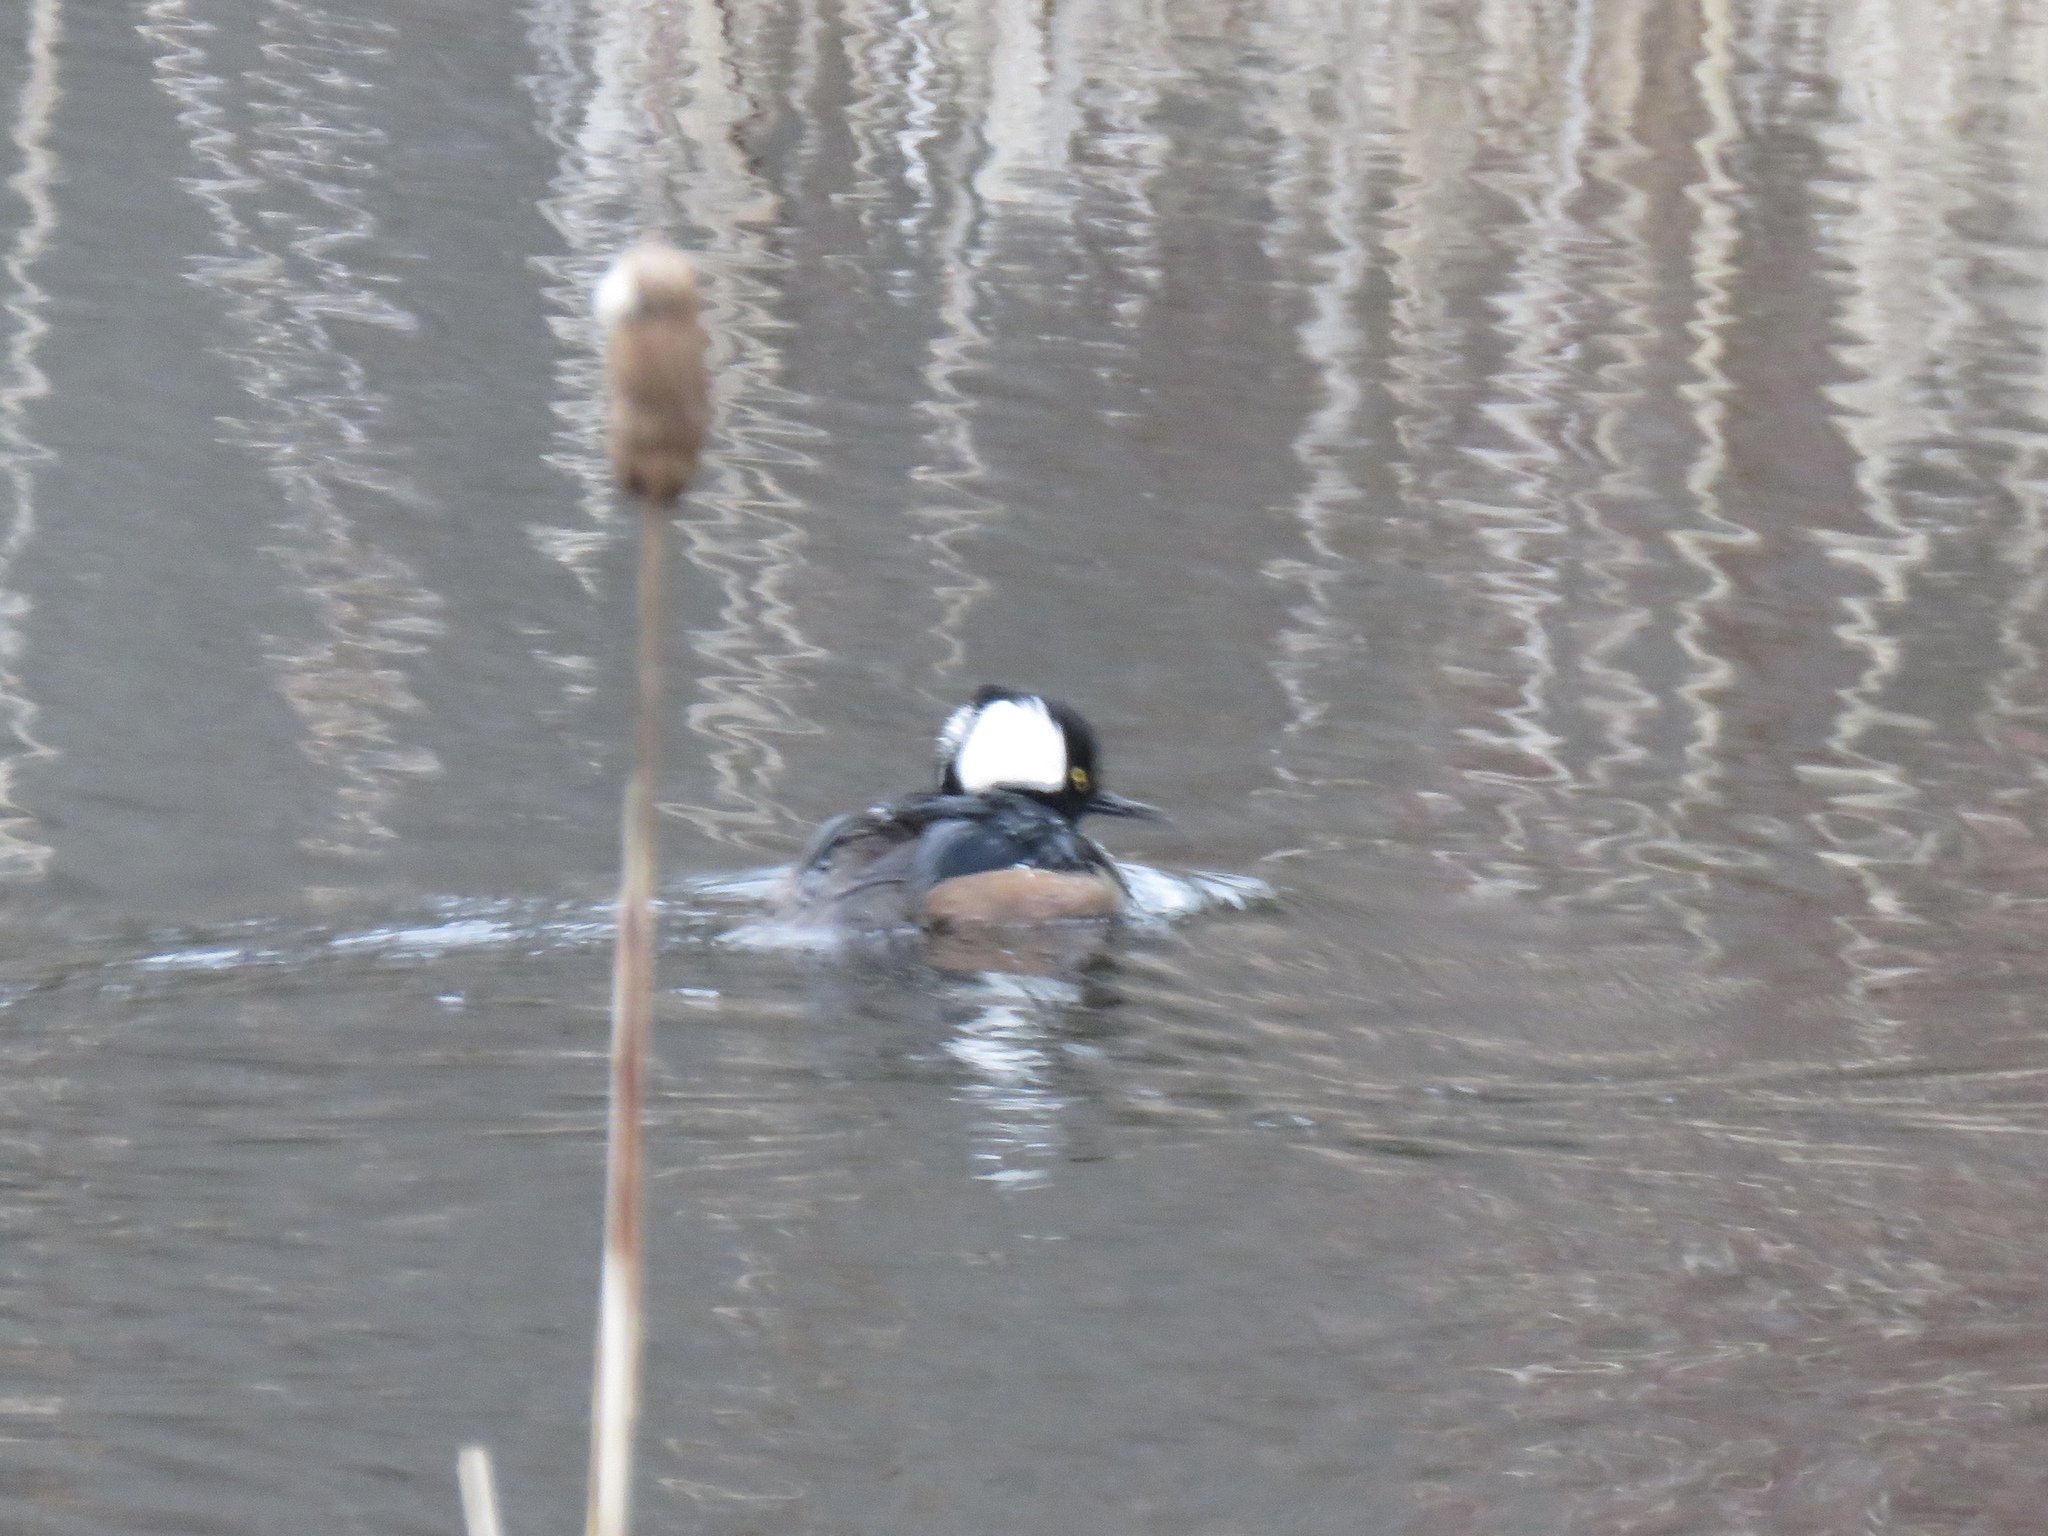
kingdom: Animalia
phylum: Chordata
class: Aves
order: Anseriformes
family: Anatidae
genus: Lophodytes
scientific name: Lophodytes cucullatus
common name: Hooded merganser
